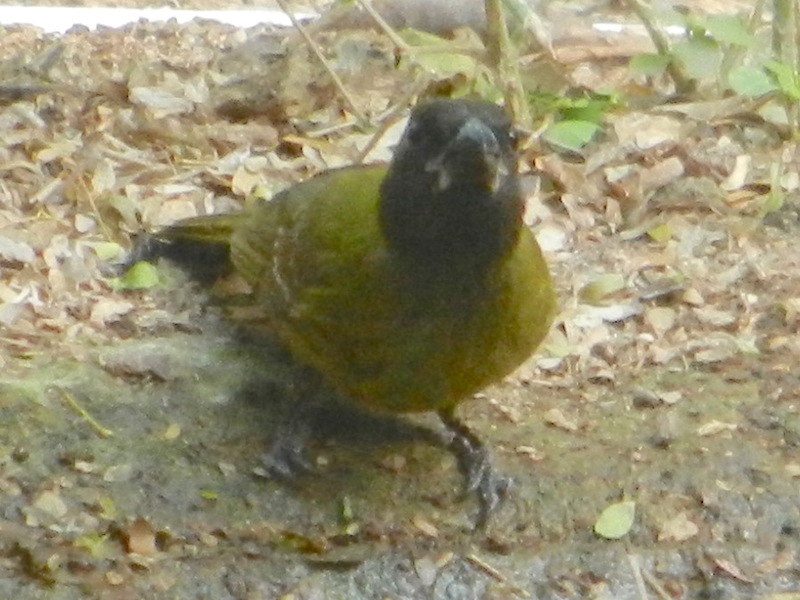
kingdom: Animalia
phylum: Chordata
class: Aves
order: Passeriformes
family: Cardinalidae
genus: Rhodothraupis
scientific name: Rhodothraupis celaeno
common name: Crimson-collared grosbeak
